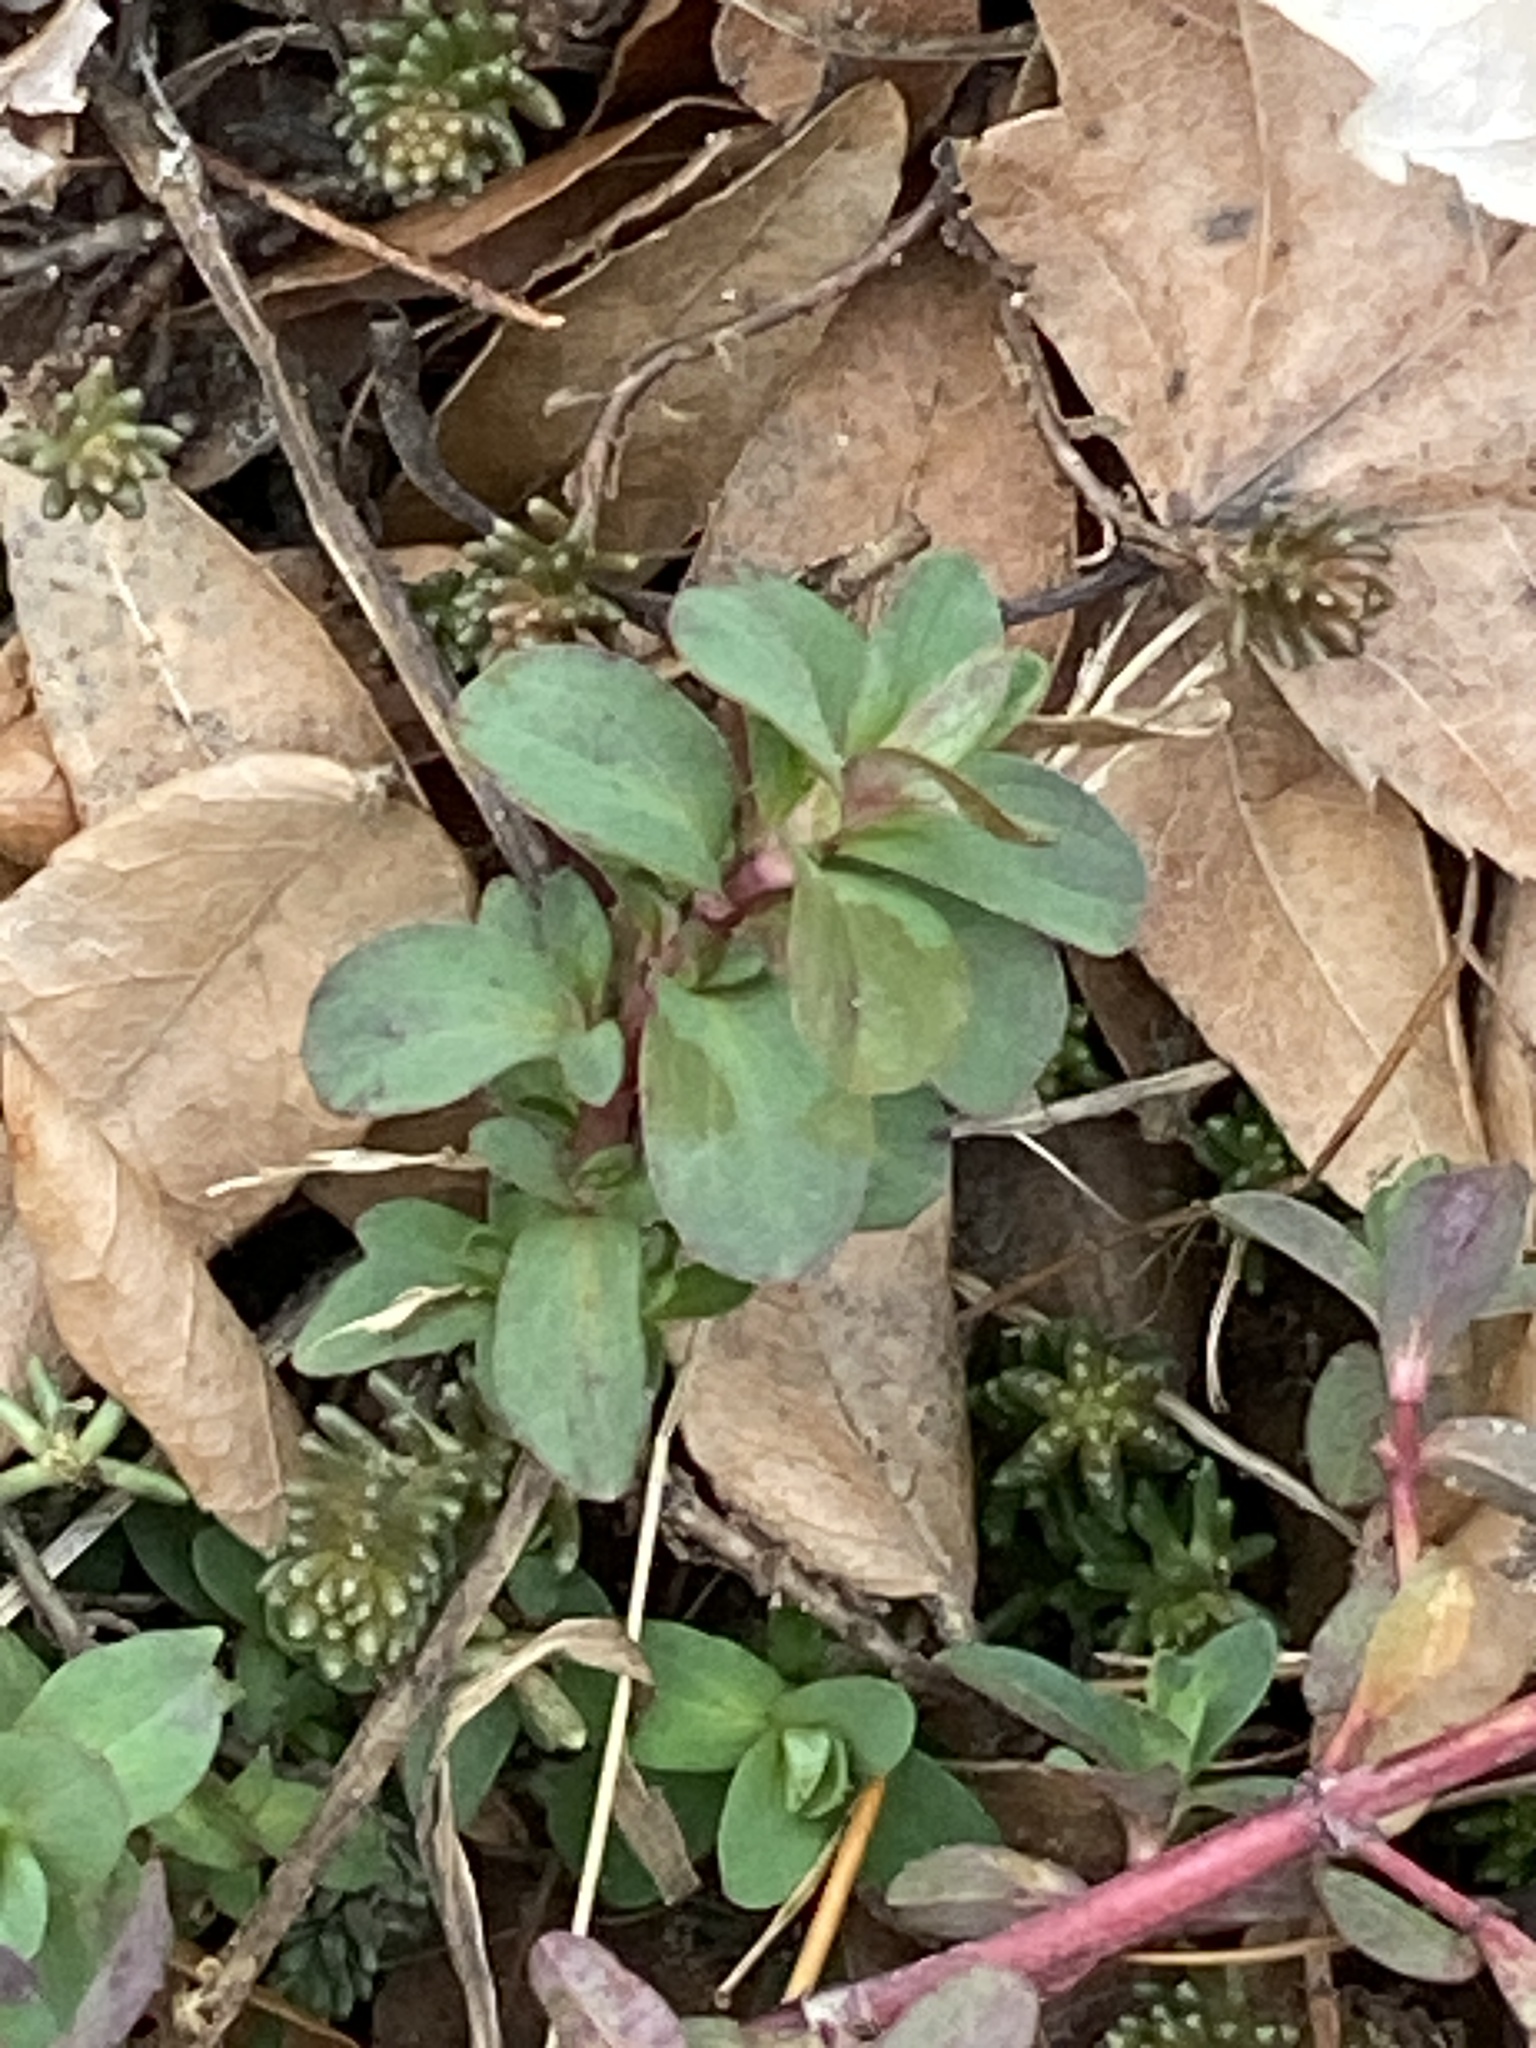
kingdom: Plantae
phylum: Tracheophyta
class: Magnoliopsida
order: Malpighiales
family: Hypericaceae
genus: Hypericum
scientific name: Hypericum perforatum
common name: Common st. johnswort
